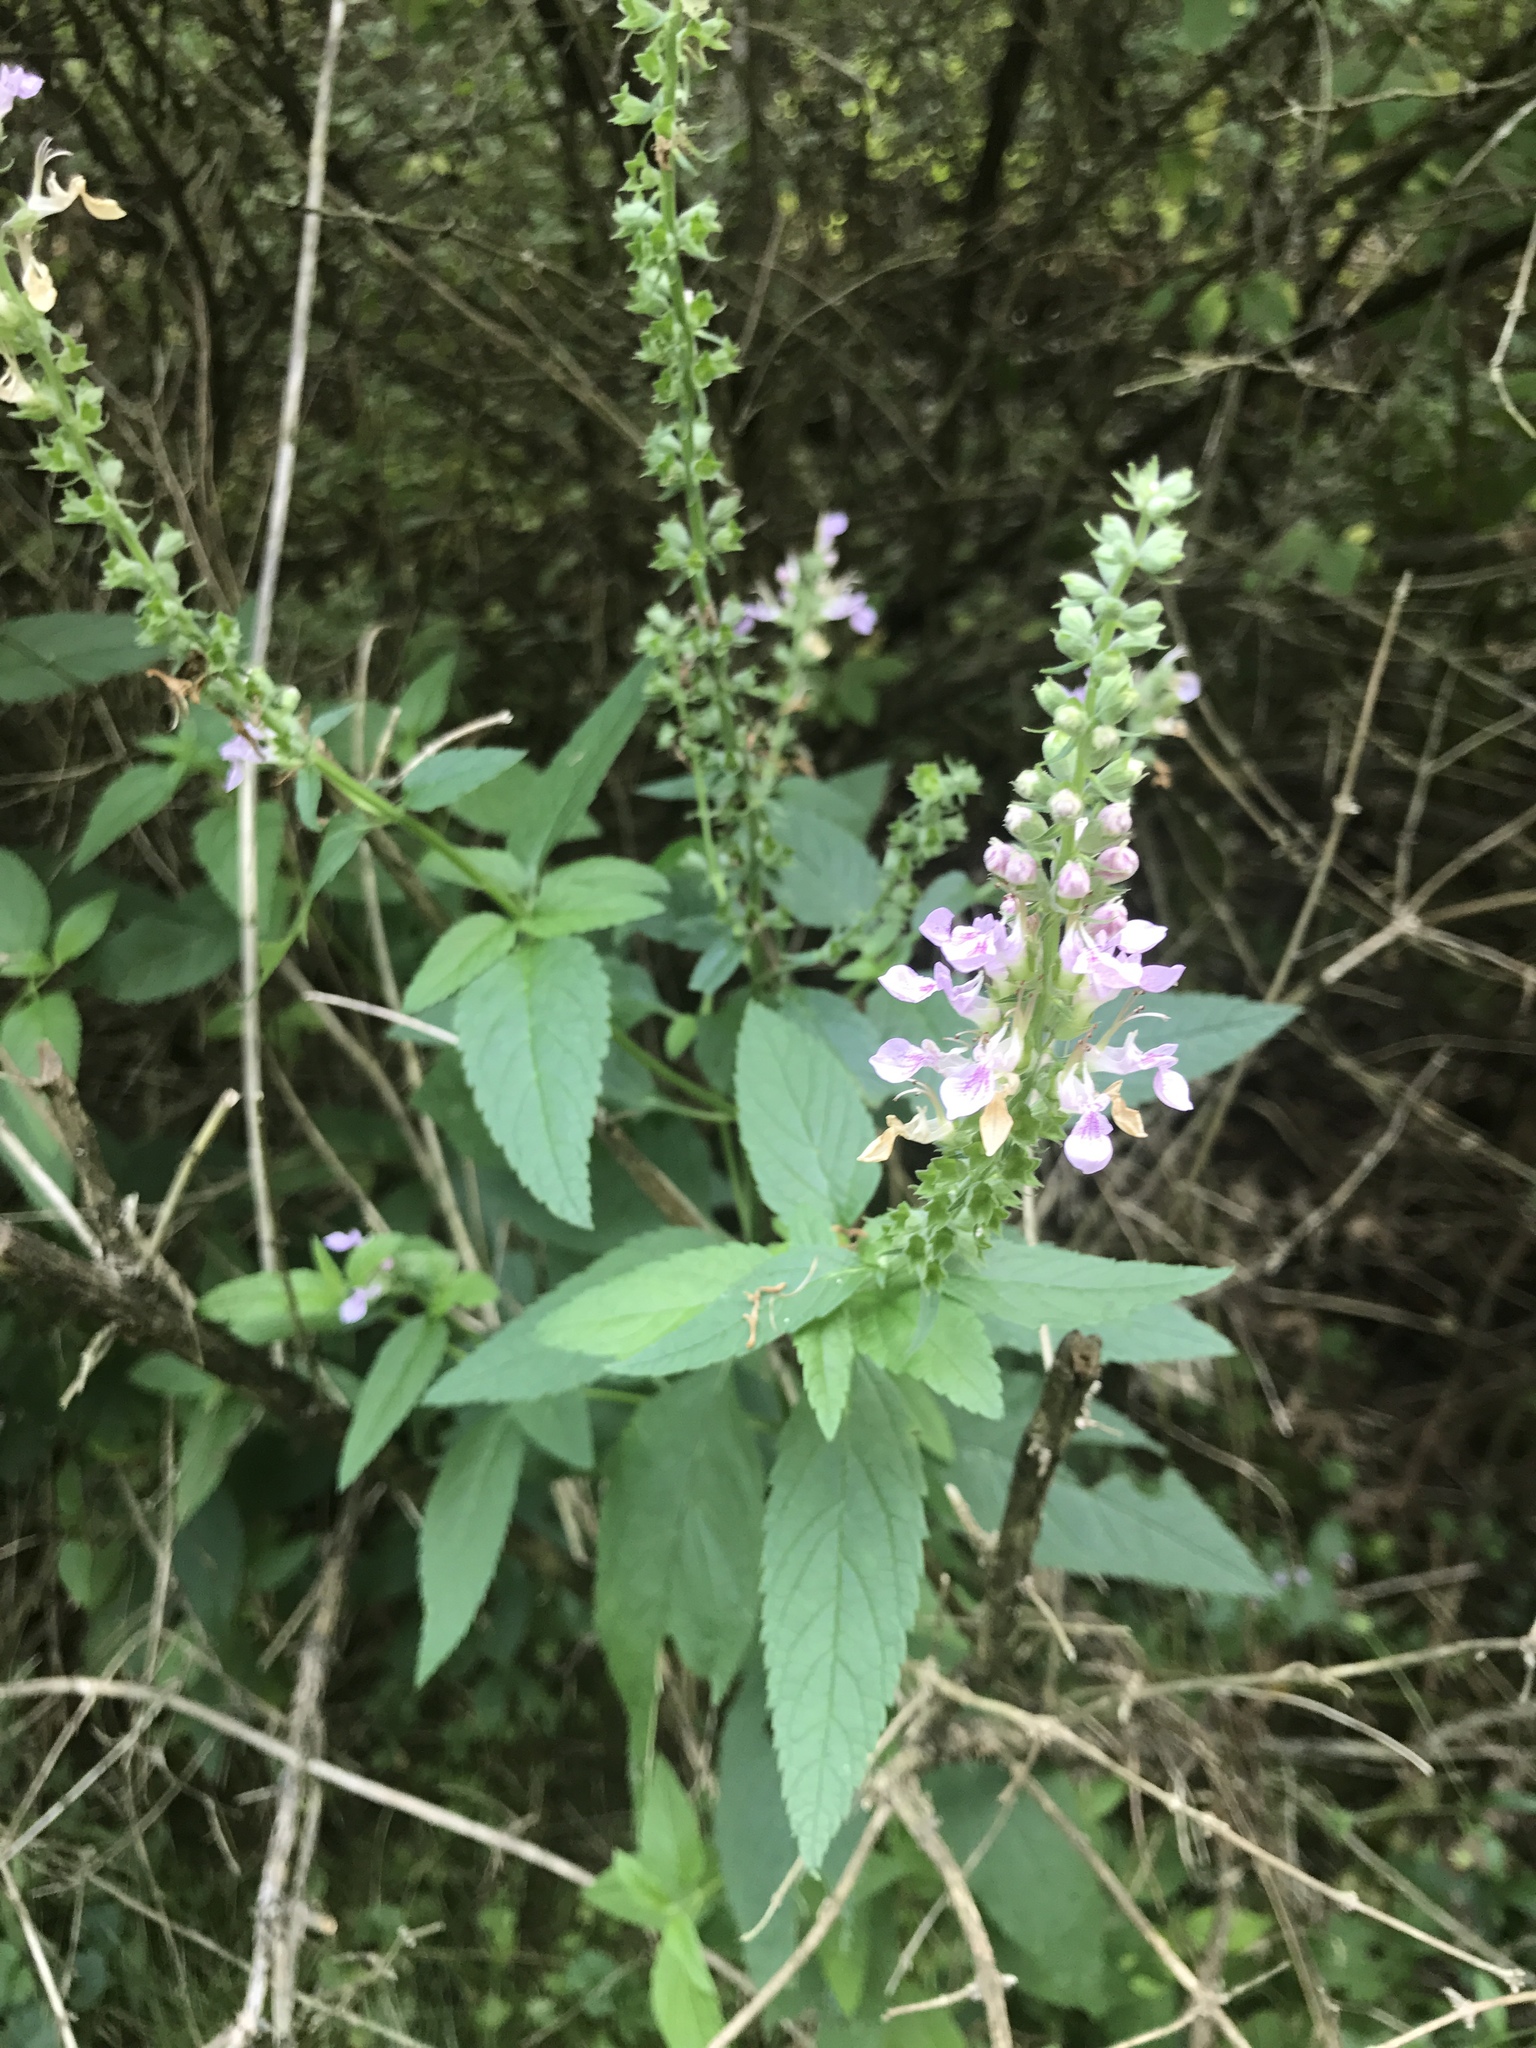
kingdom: Plantae
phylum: Tracheophyta
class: Magnoliopsida
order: Lamiales
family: Lamiaceae
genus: Teucrium
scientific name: Teucrium canadense
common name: American germander
